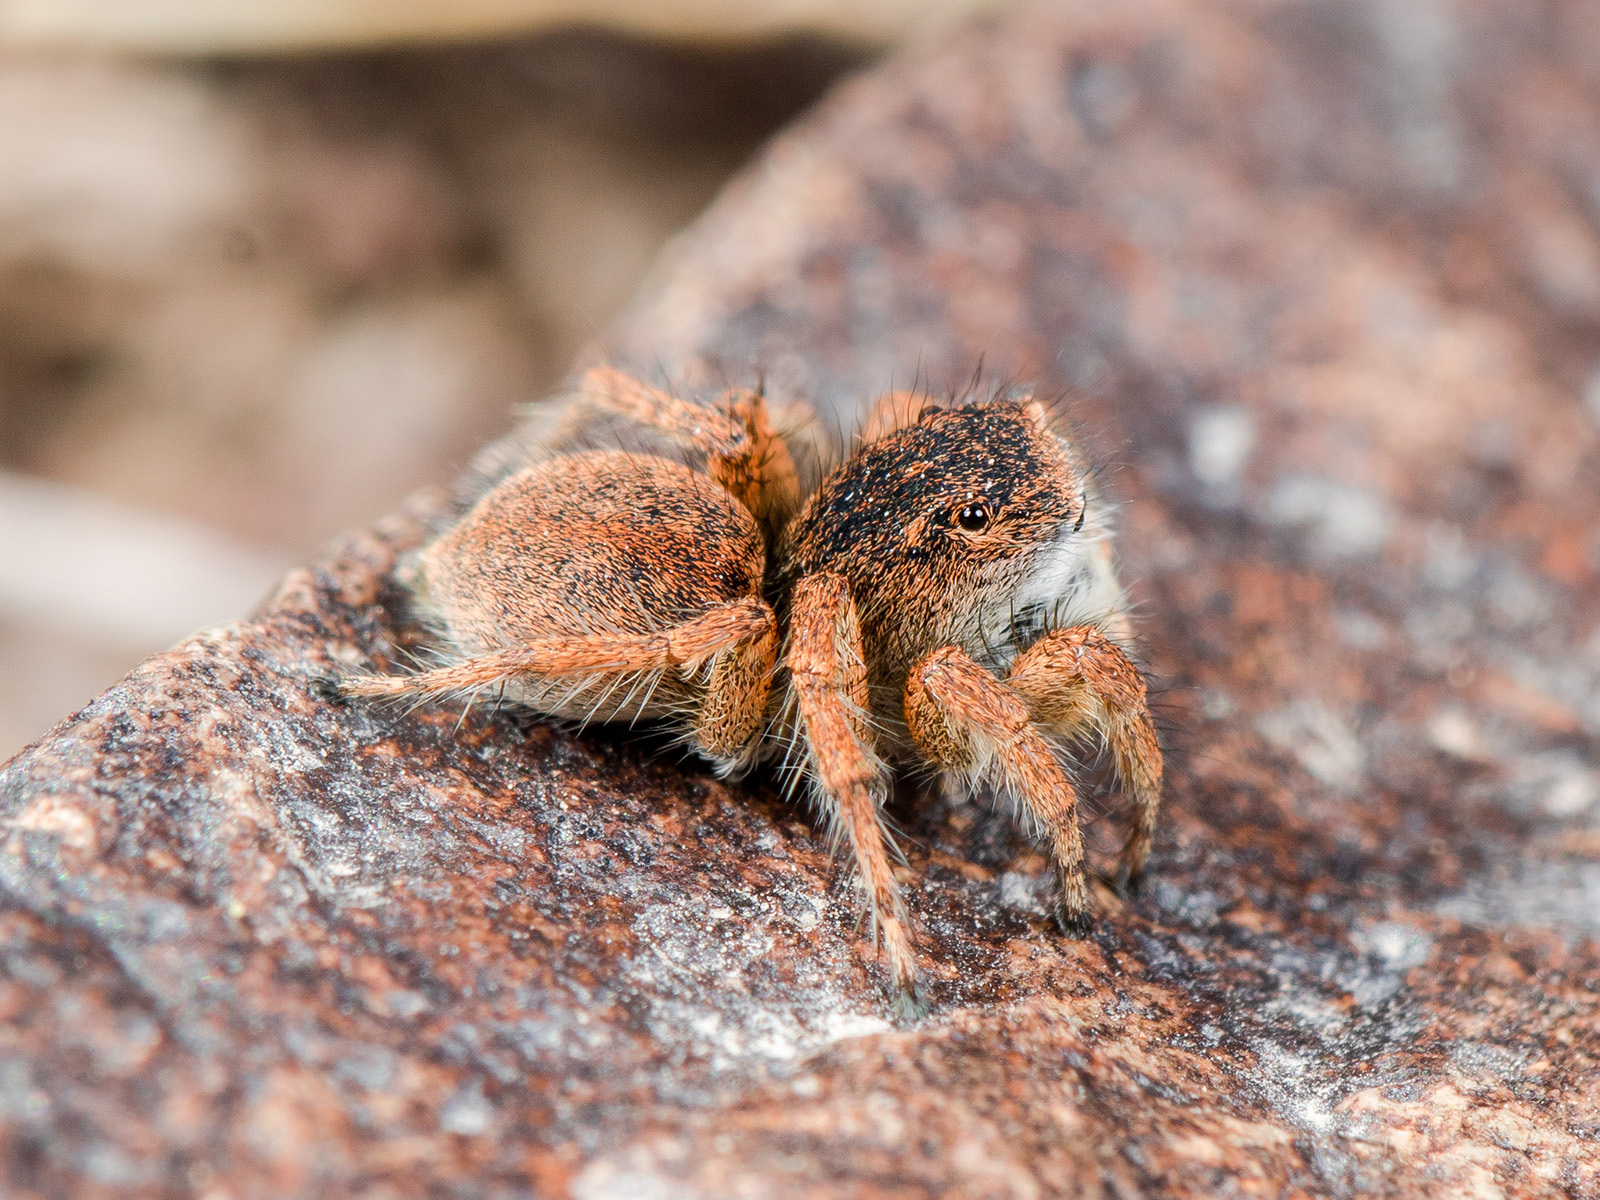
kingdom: Animalia
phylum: Arthropoda
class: Arachnida
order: Araneae
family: Salticidae
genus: Aelurillus
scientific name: Aelurillus dubatolovi
